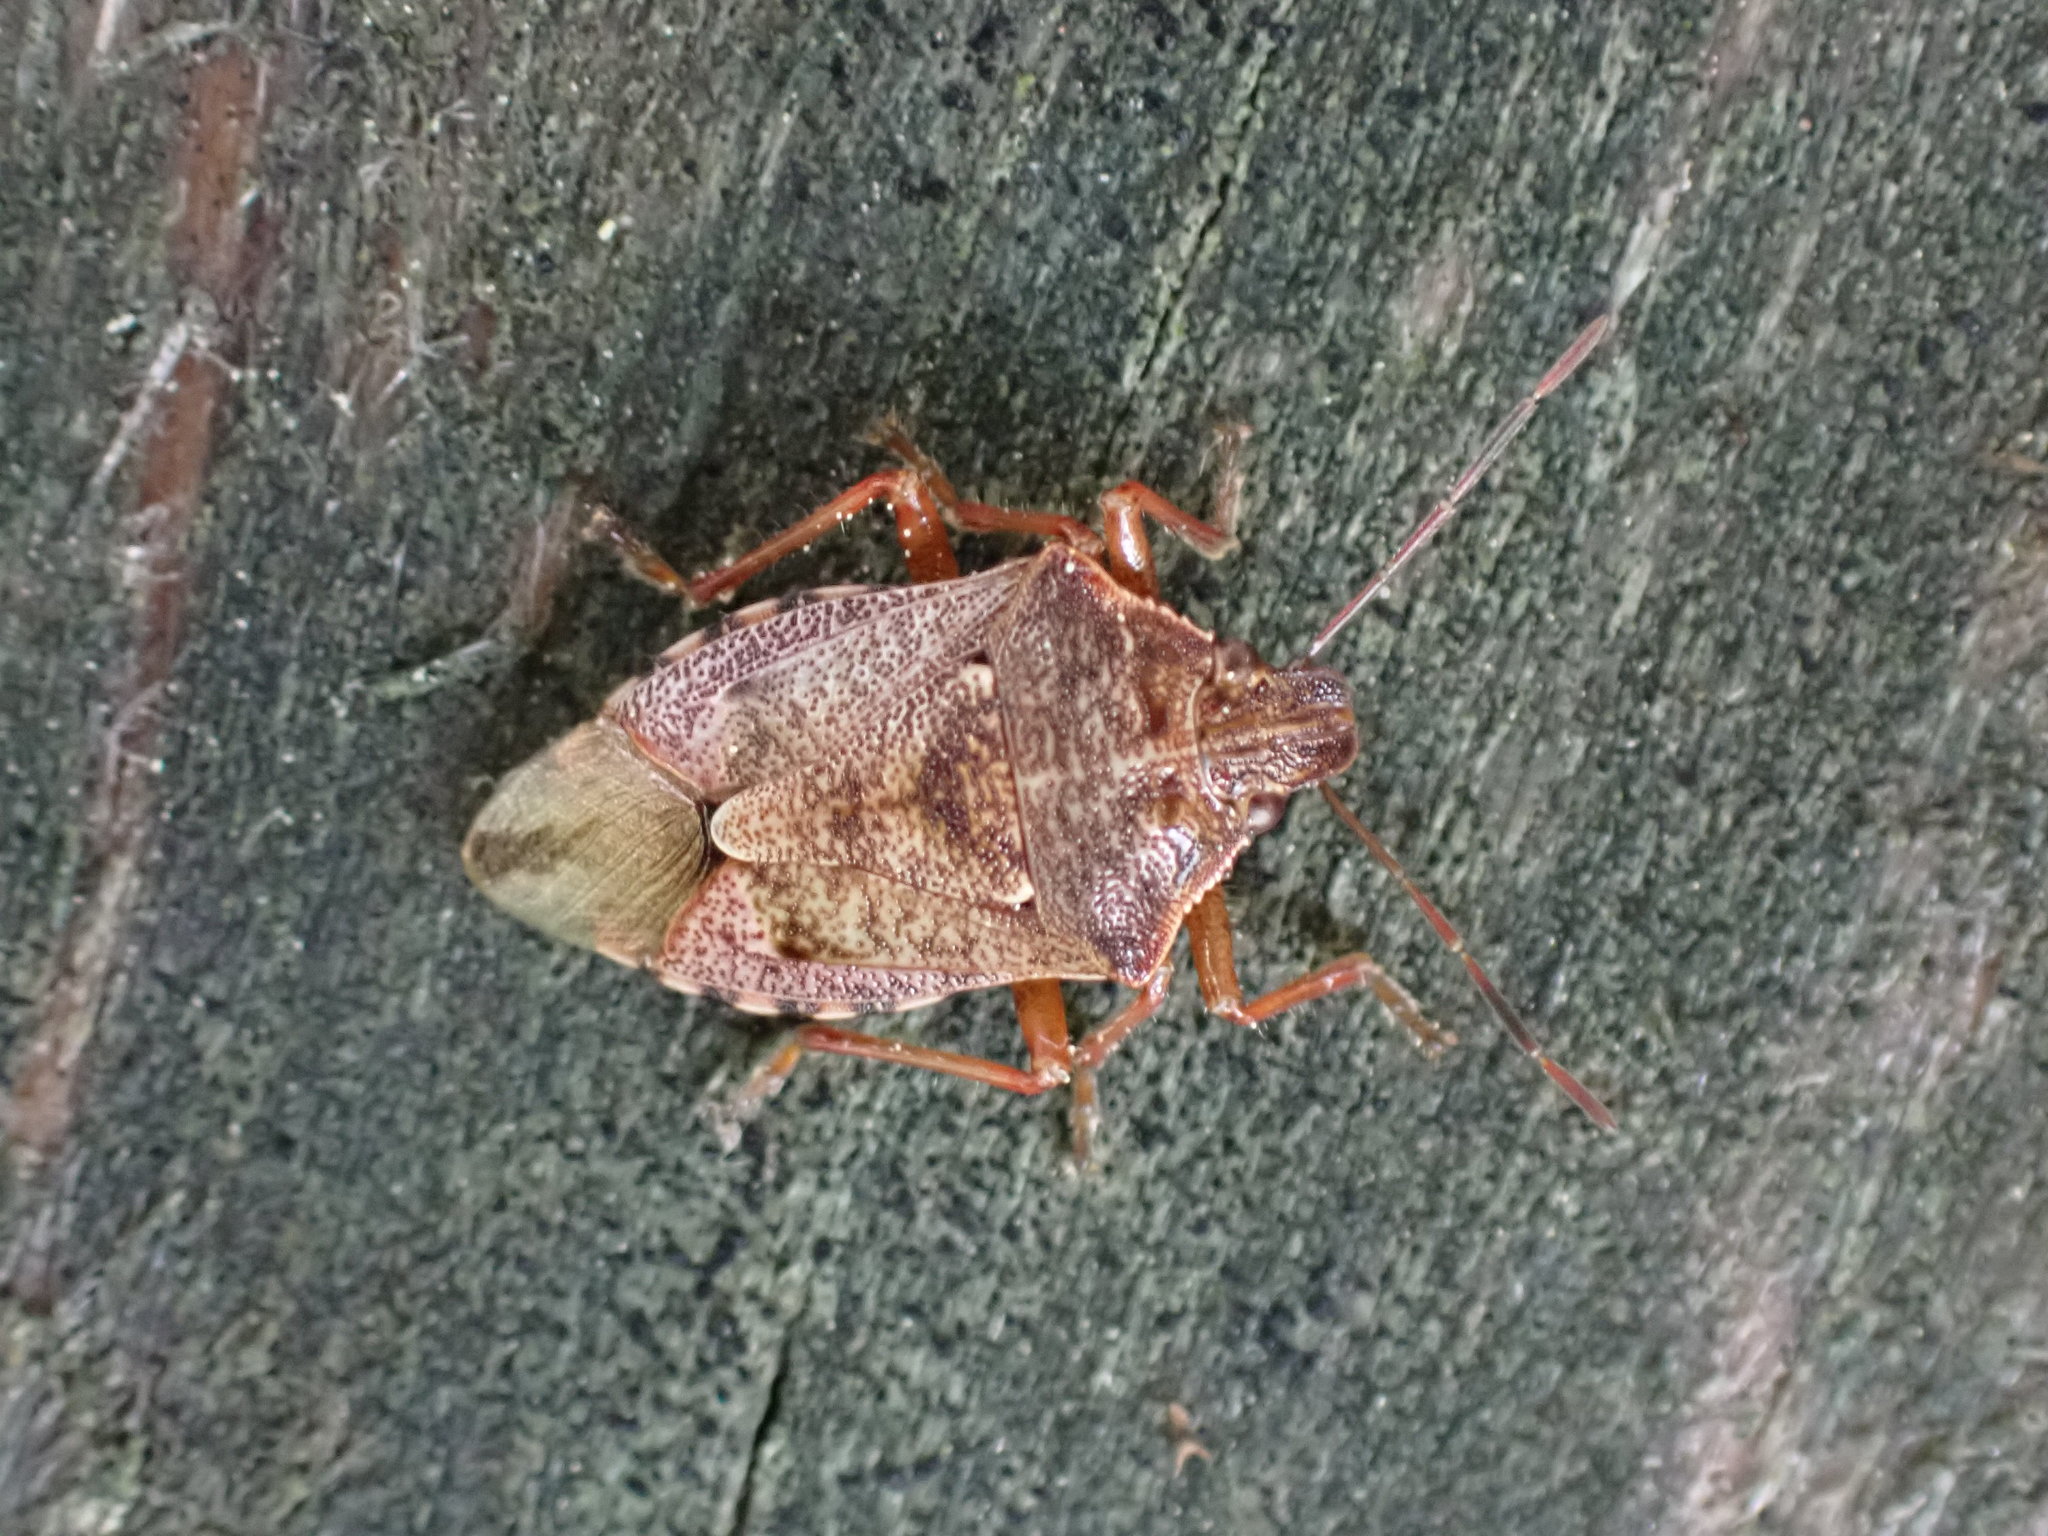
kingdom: Animalia
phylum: Arthropoda
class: Insecta
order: Hemiptera
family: Pentatomidae
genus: Podisus
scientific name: Podisus serieventris
